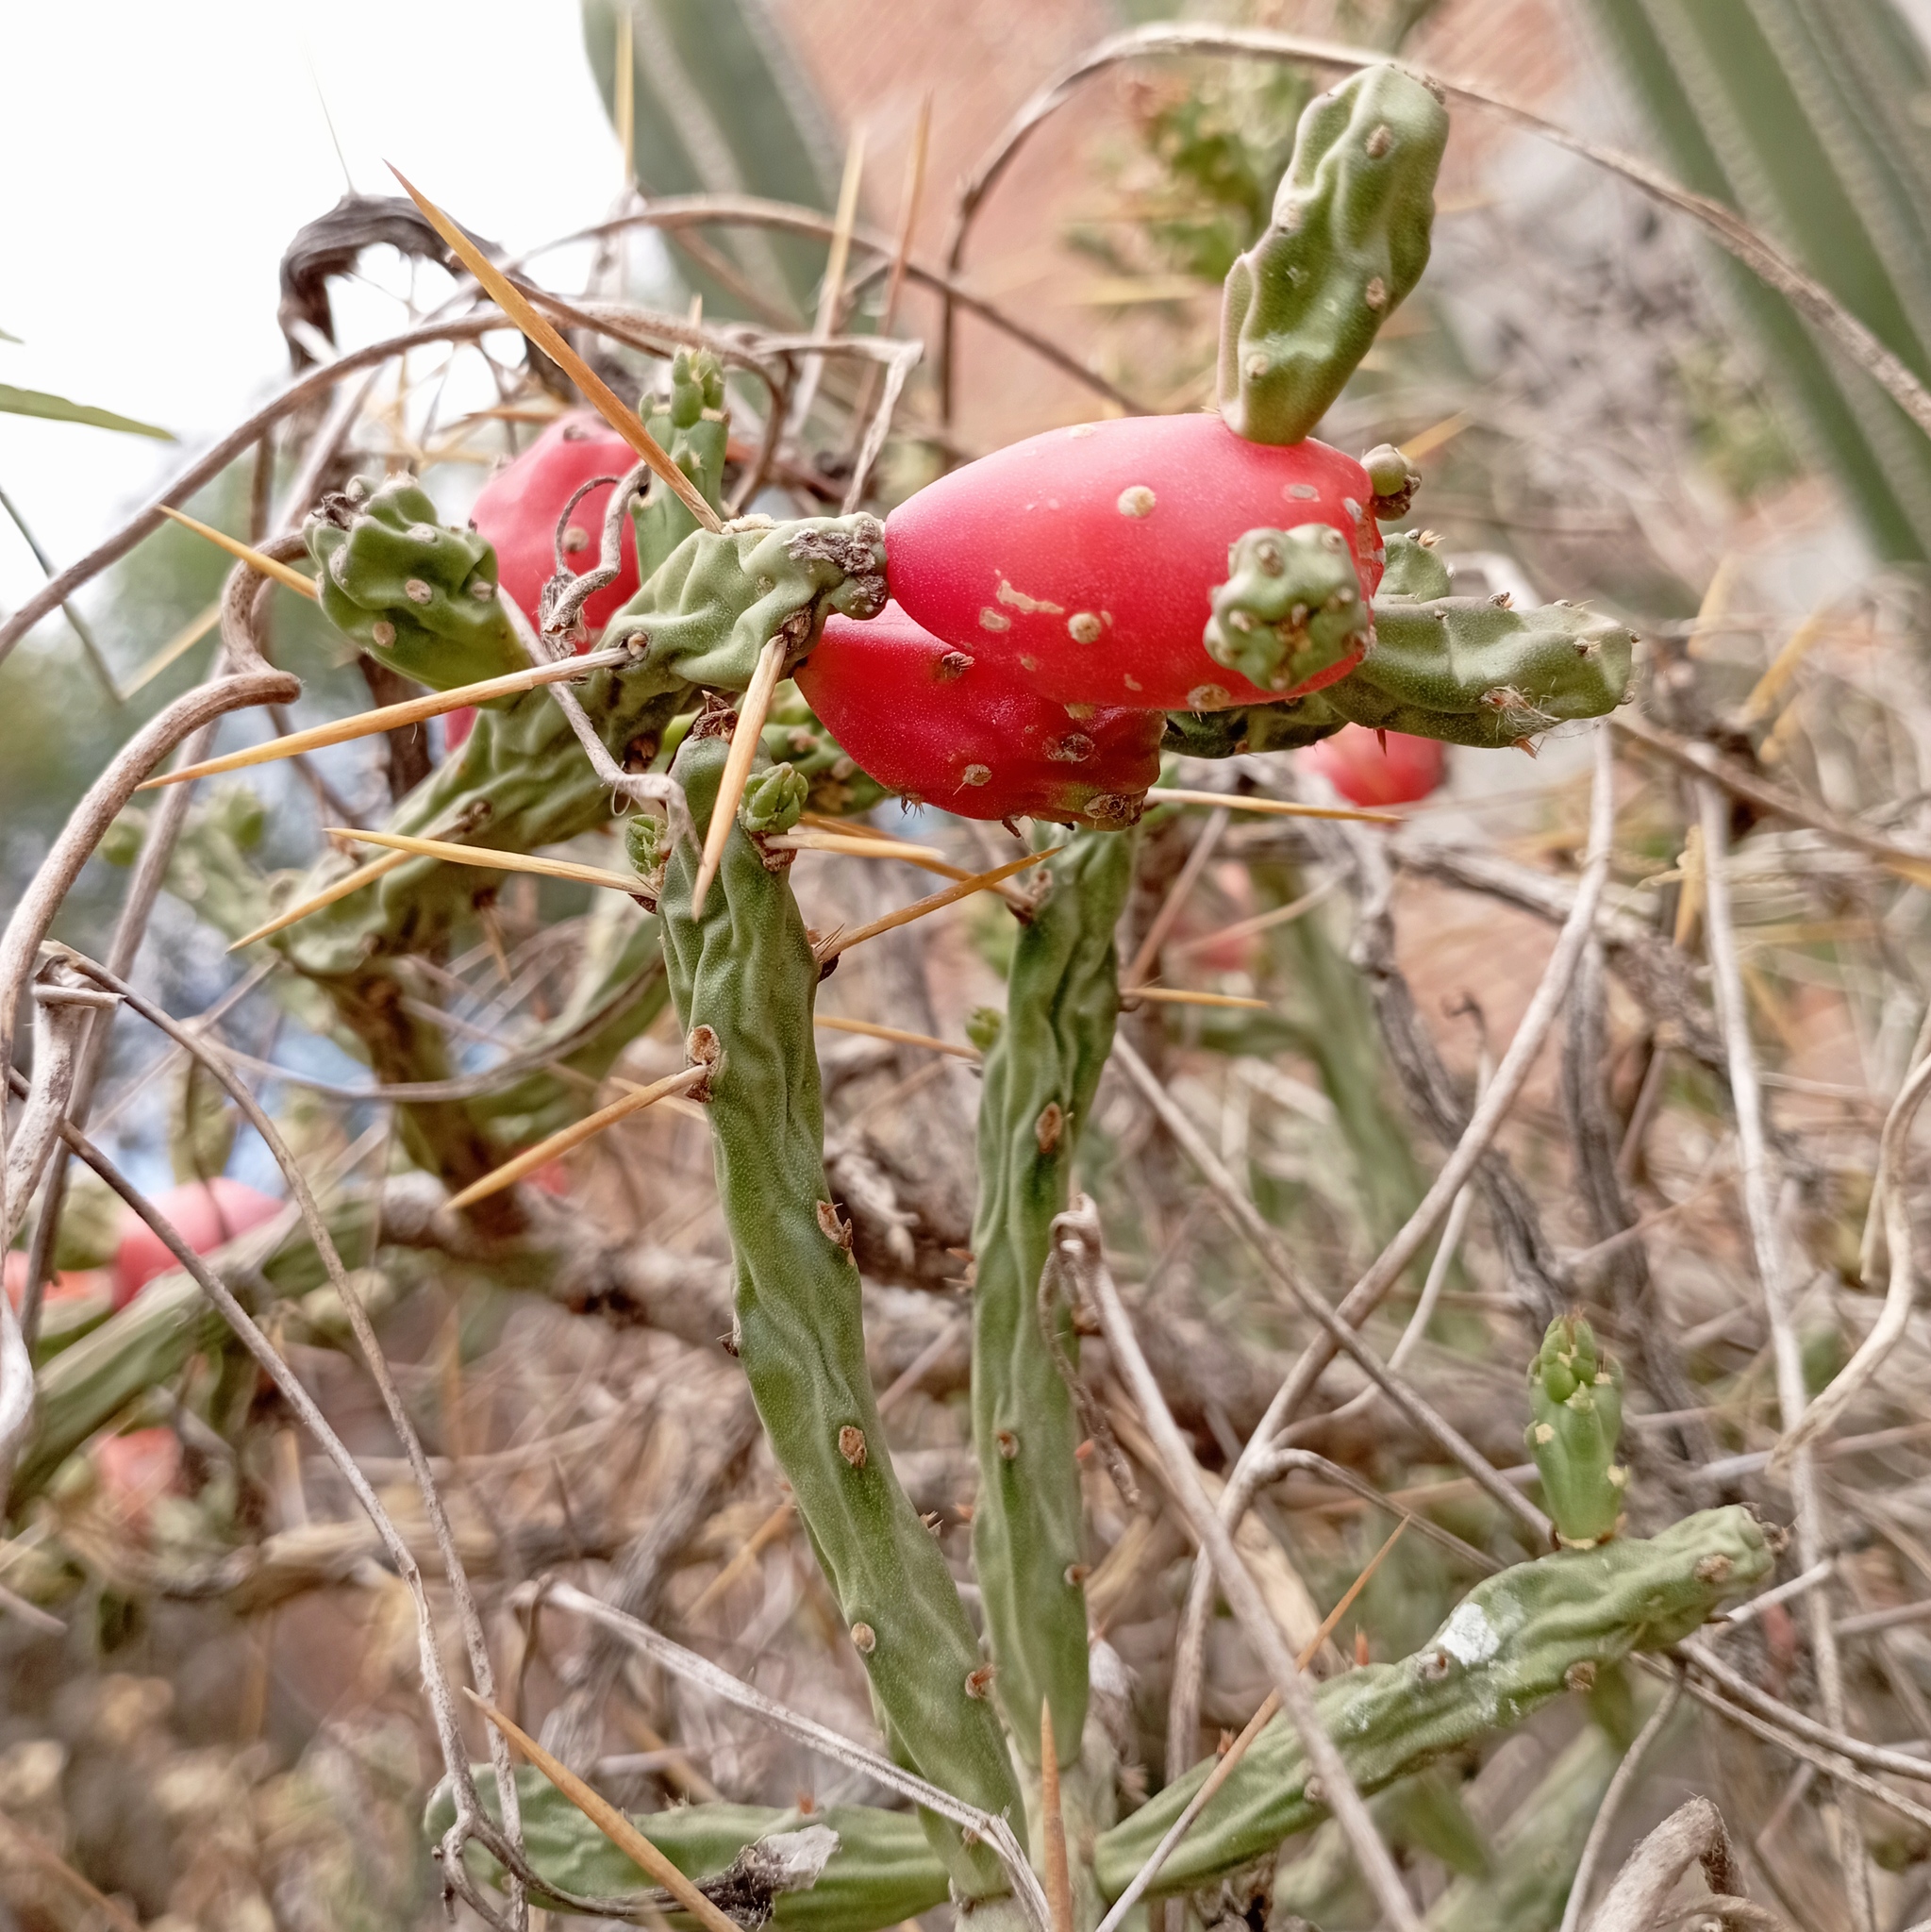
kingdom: Plantae
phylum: Tracheophyta
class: Magnoliopsida
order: Caryophyllales
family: Cactaceae
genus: Cylindropuntia
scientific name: Cylindropuntia kleiniae
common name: Klein's cholla
